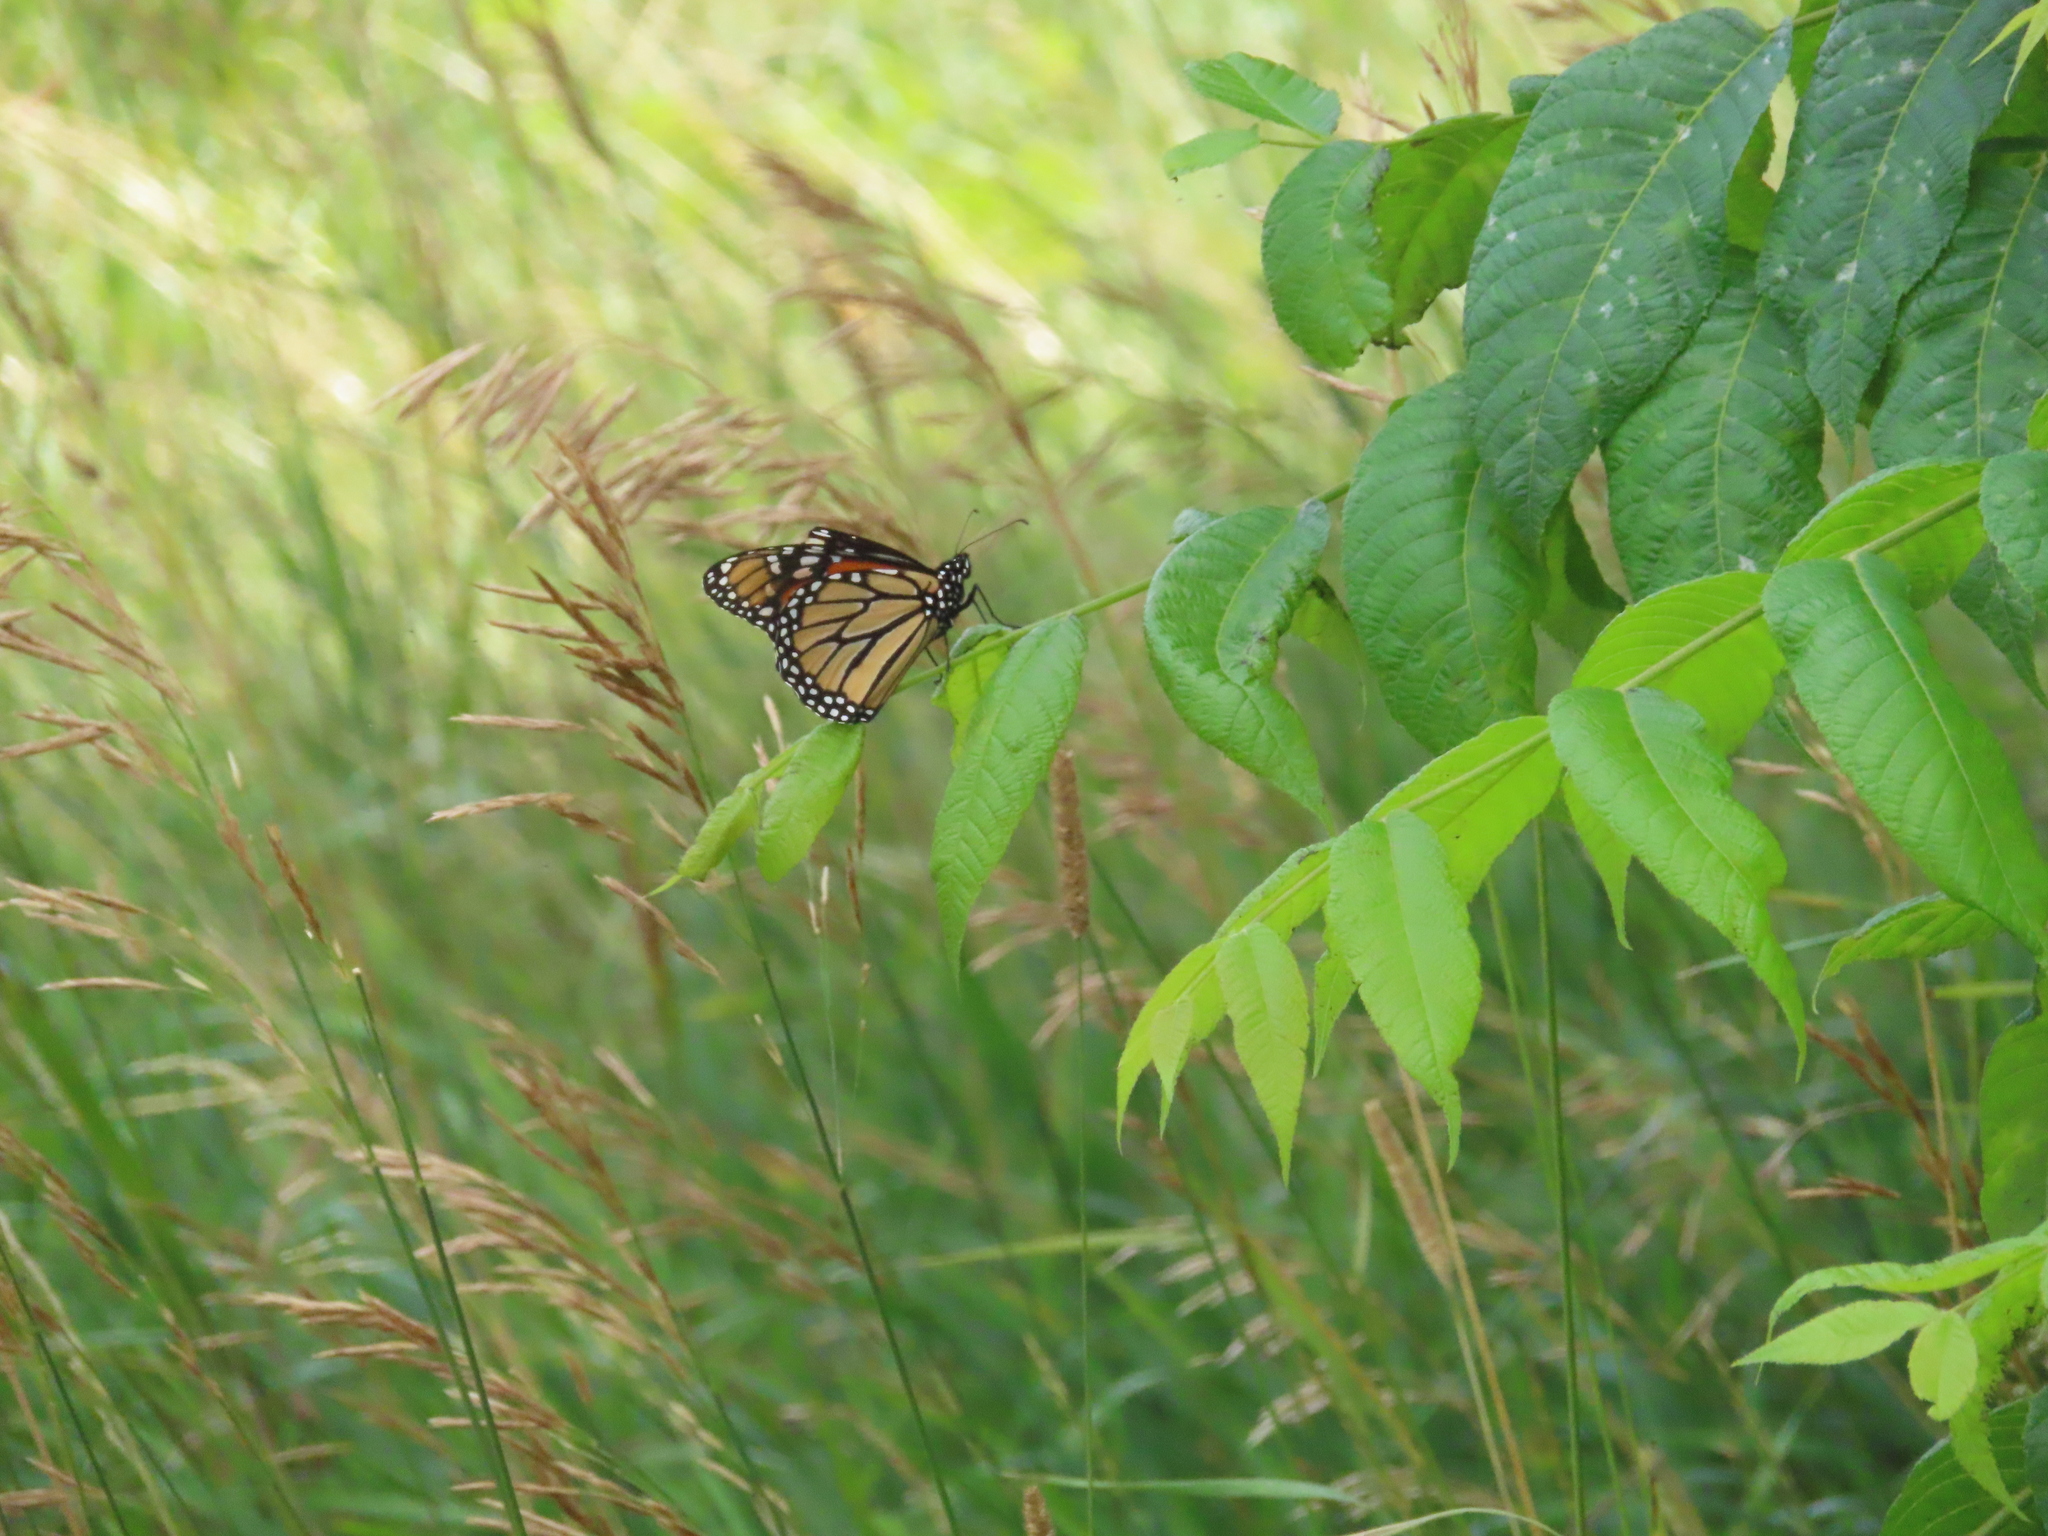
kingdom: Animalia
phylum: Arthropoda
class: Insecta
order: Lepidoptera
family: Nymphalidae
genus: Danaus
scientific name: Danaus plexippus
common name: Monarch
